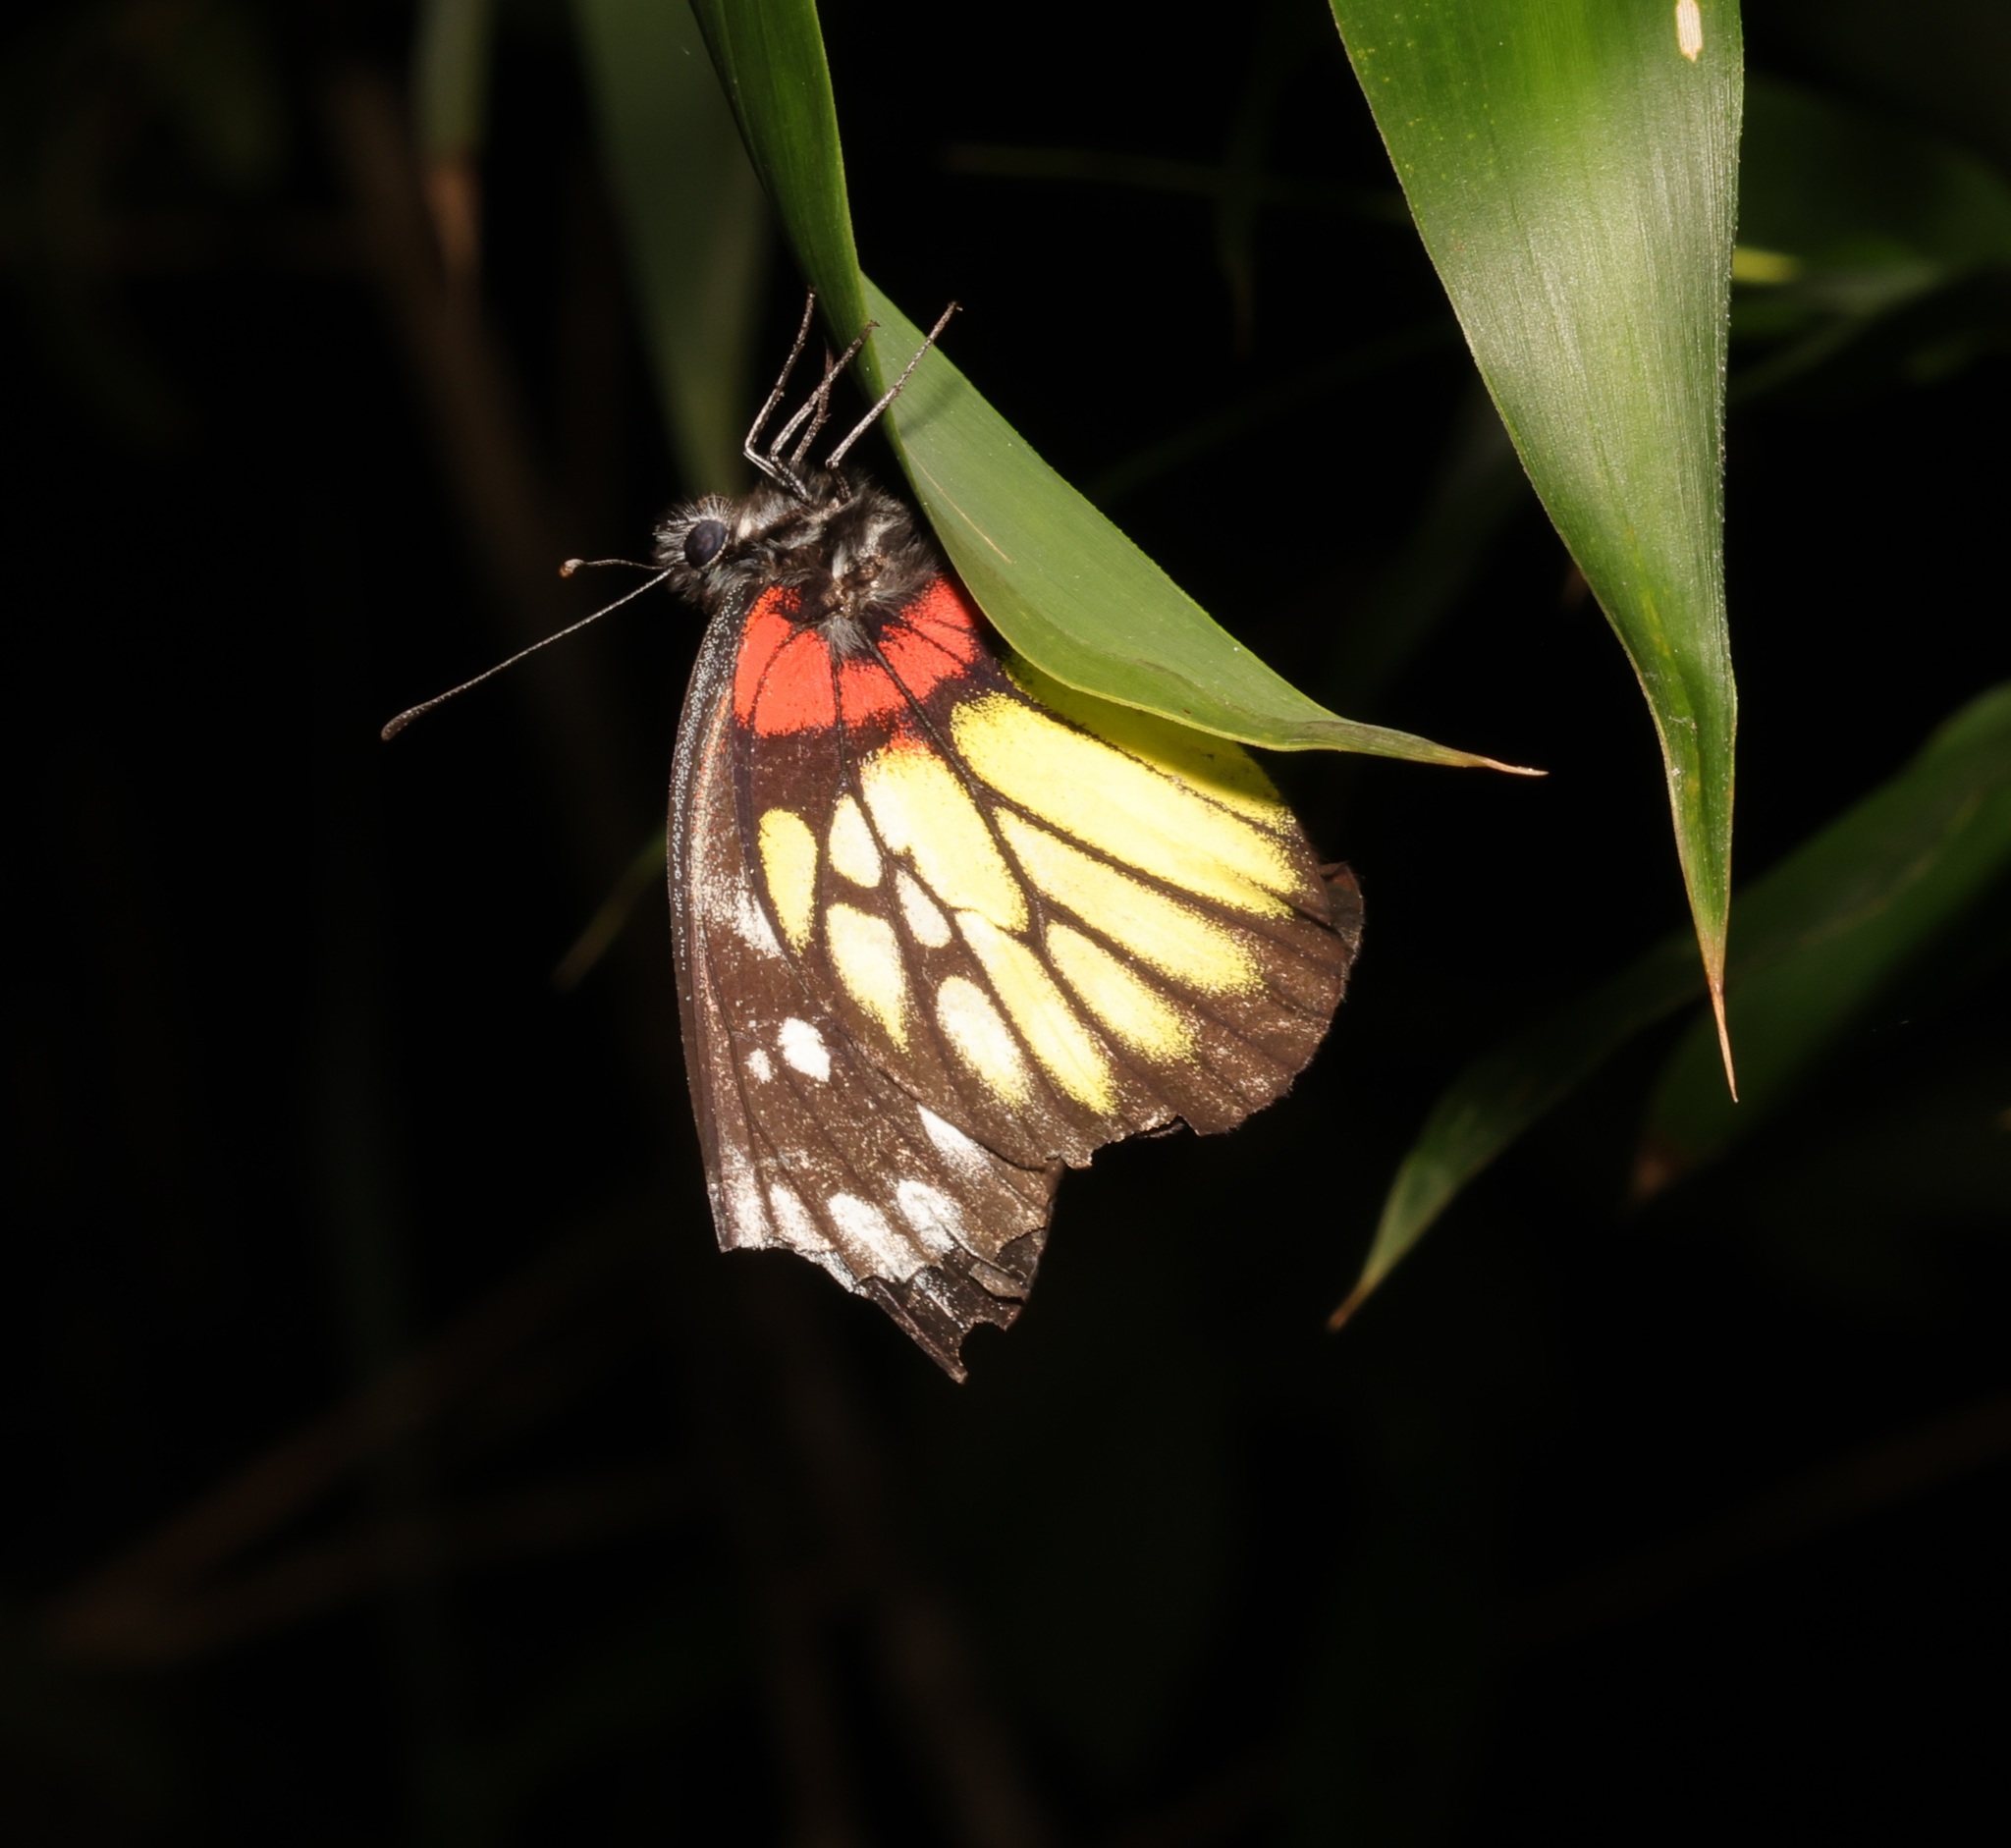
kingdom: Animalia
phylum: Arthropoda
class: Insecta
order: Lepidoptera
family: Pieridae
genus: Delias
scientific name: Delias pasithoe
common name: Red-base jezebel
